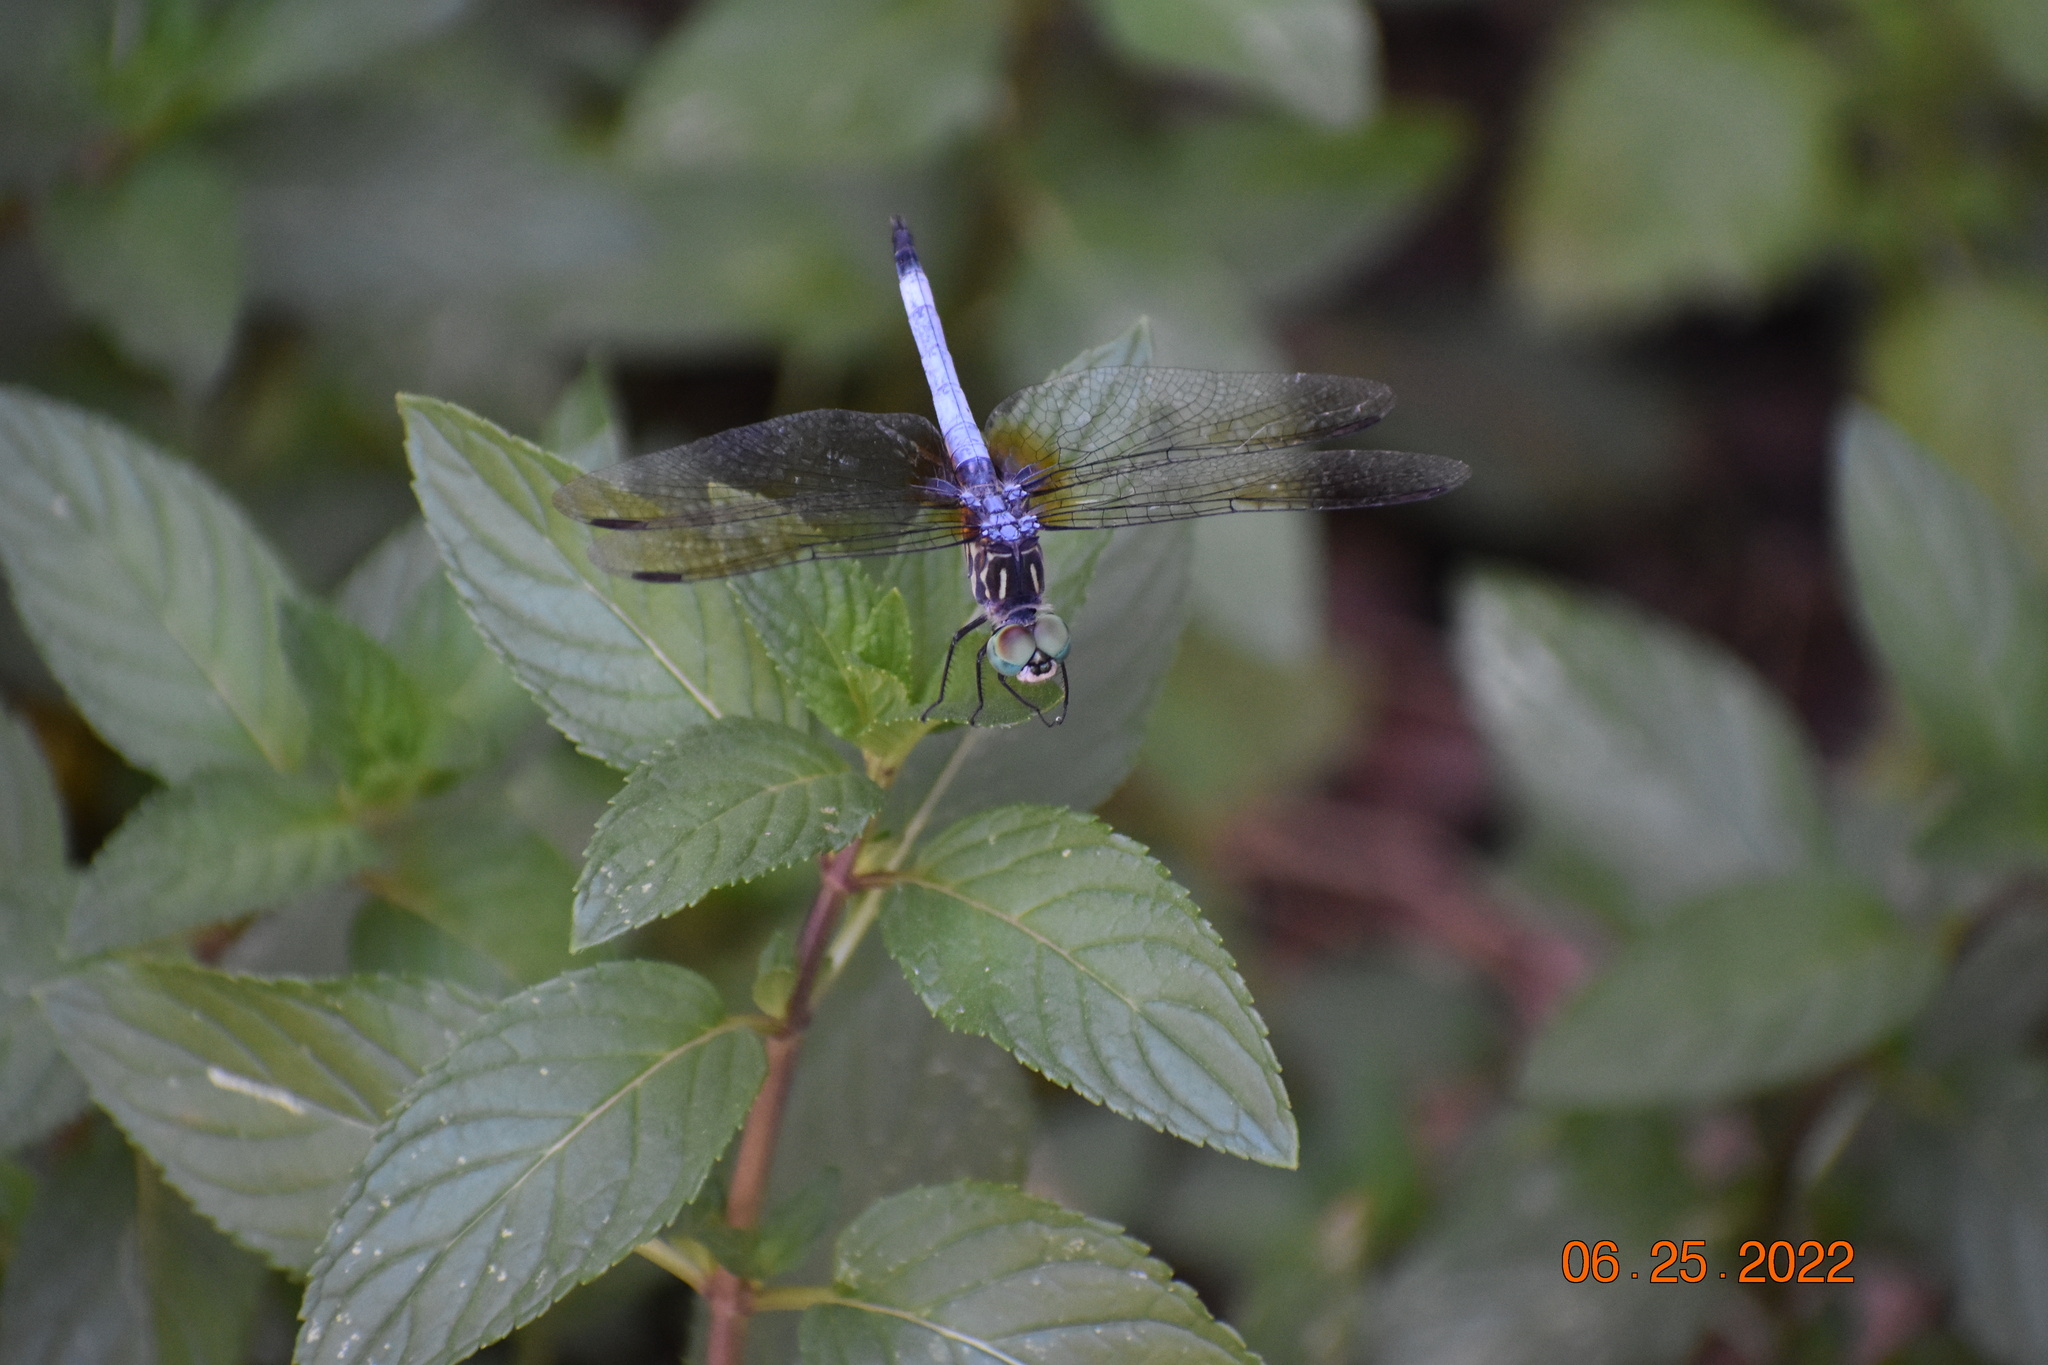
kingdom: Animalia
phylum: Arthropoda
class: Insecta
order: Odonata
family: Libellulidae
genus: Pachydiplax
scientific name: Pachydiplax longipennis
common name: Blue dasher
